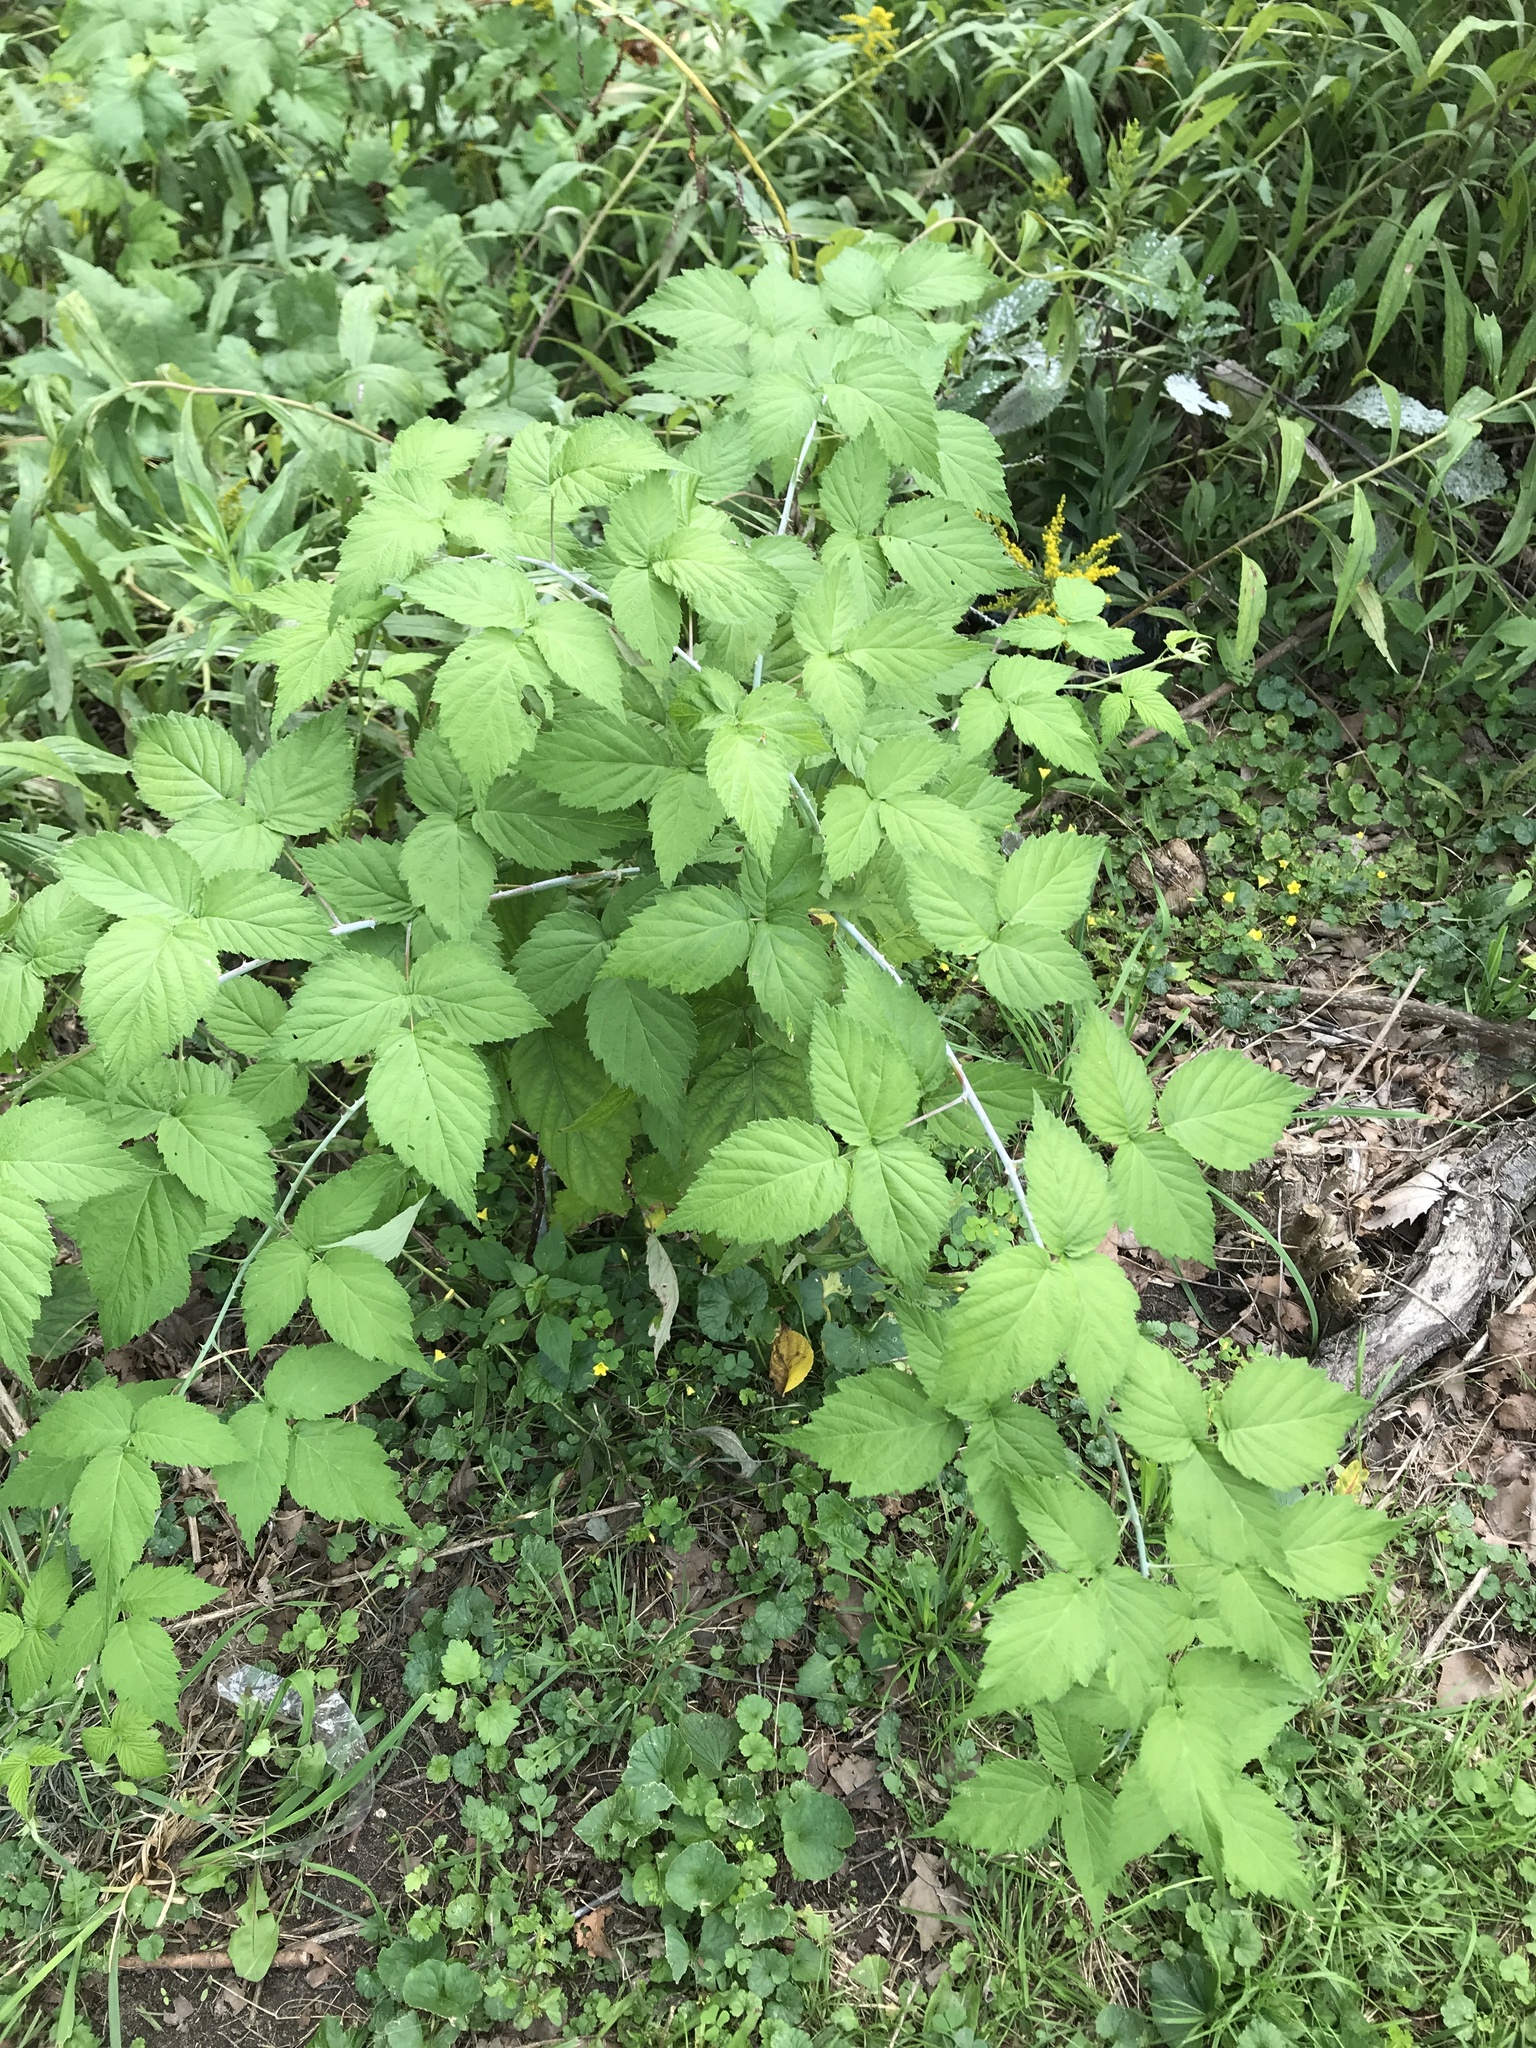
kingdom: Plantae
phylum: Tracheophyta
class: Magnoliopsida
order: Rosales
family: Rosaceae
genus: Rubus
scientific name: Rubus occidentalis
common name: Black raspberry
